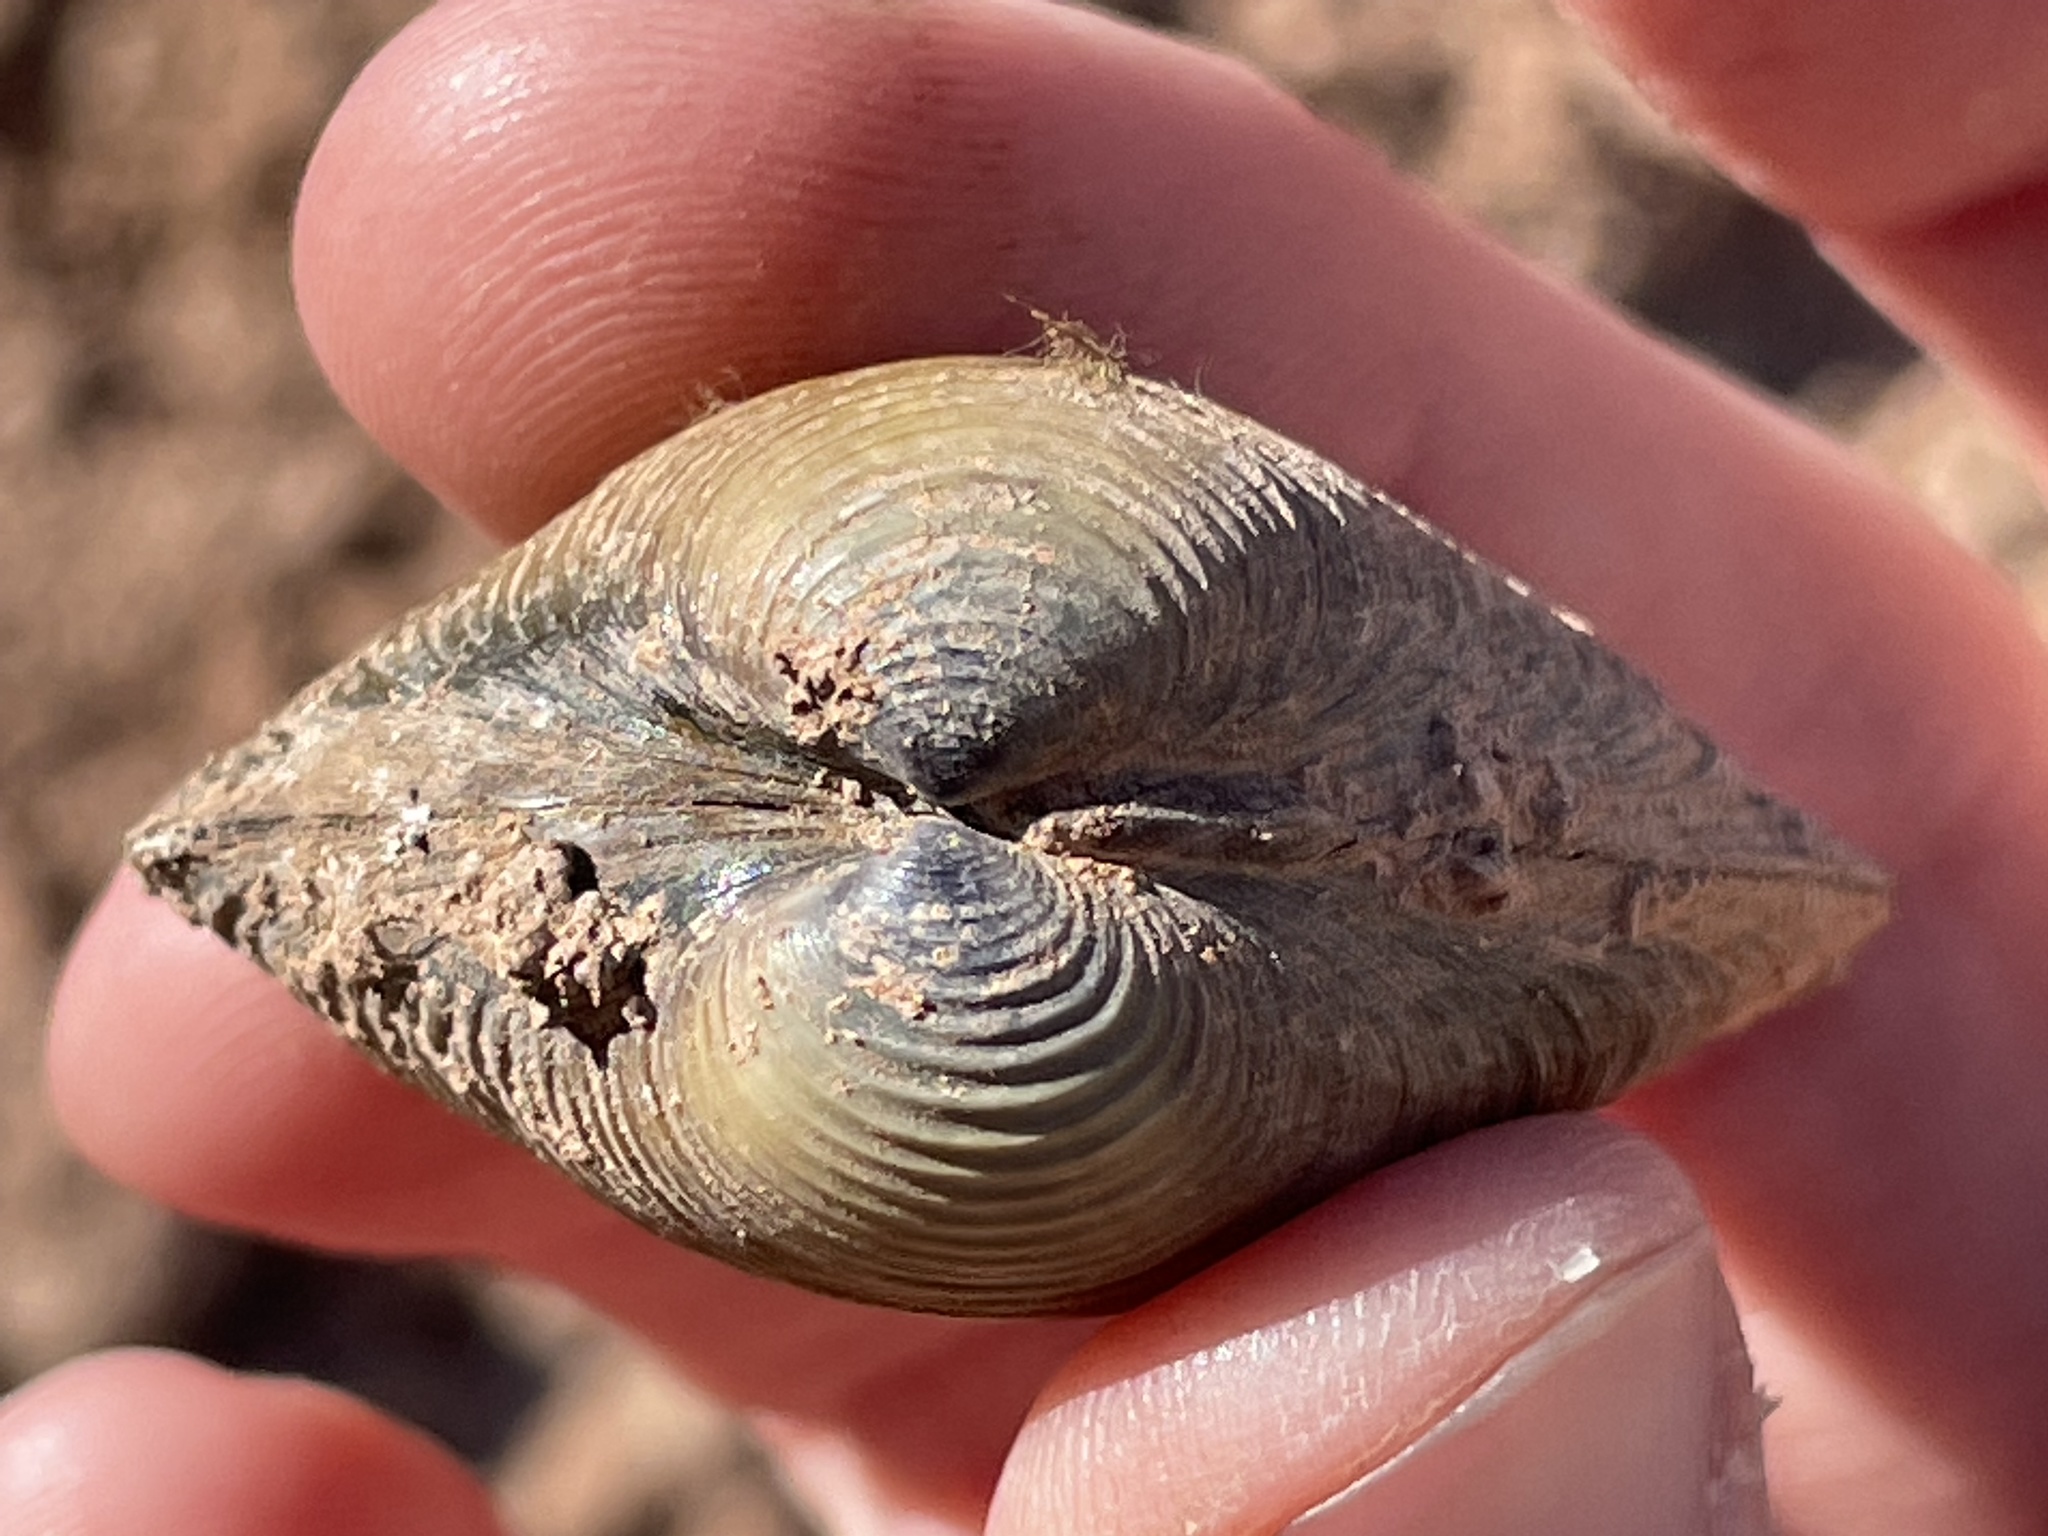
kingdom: Animalia
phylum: Mollusca
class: Bivalvia
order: Venerida
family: Cyrenidae
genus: Corbicula
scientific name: Corbicula fluminea
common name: Asian clam
